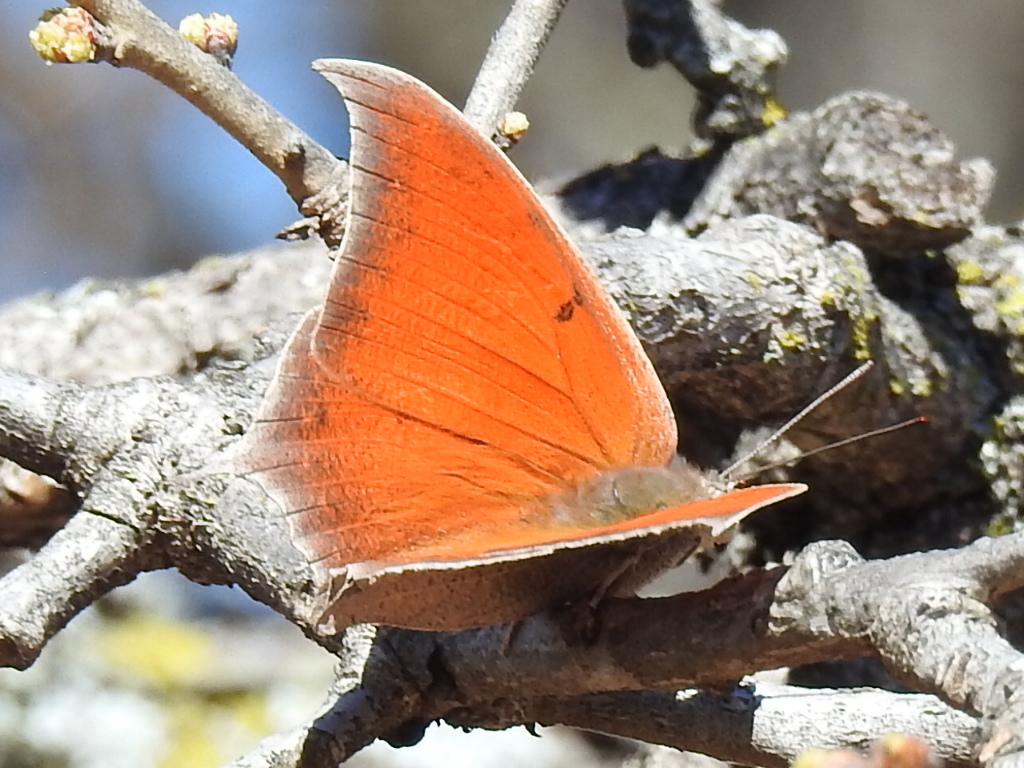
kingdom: Animalia
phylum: Arthropoda
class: Insecta
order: Lepidoptera
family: Nymphalidae
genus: Anaea
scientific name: Anaea andria
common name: Goatweed leafwing
